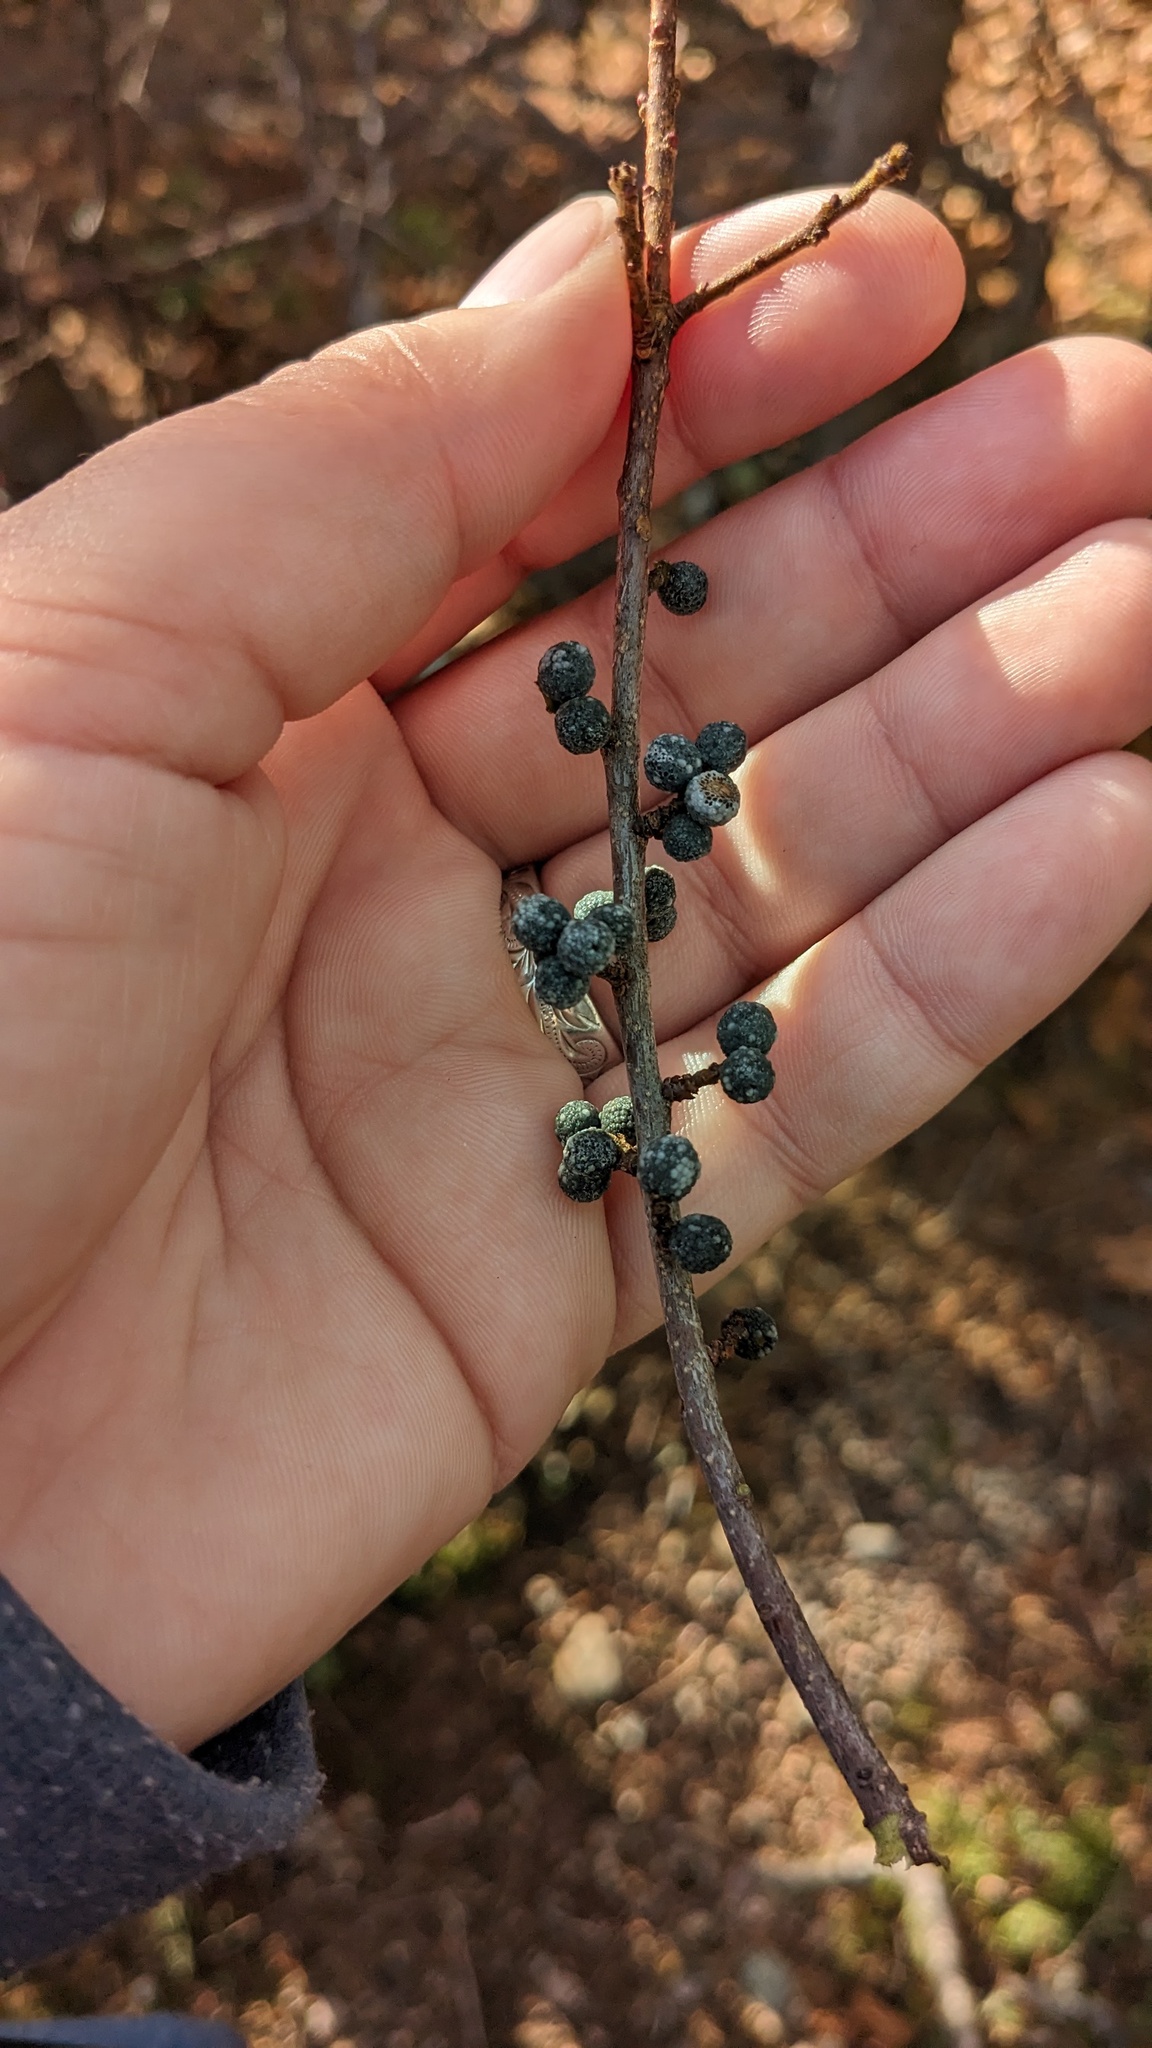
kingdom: Plantae
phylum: Tracheophyta
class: Magnoliopsida
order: Fagales
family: Myricaceae
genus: Morella
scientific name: Morella pensylvanica
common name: Northern bayberry
